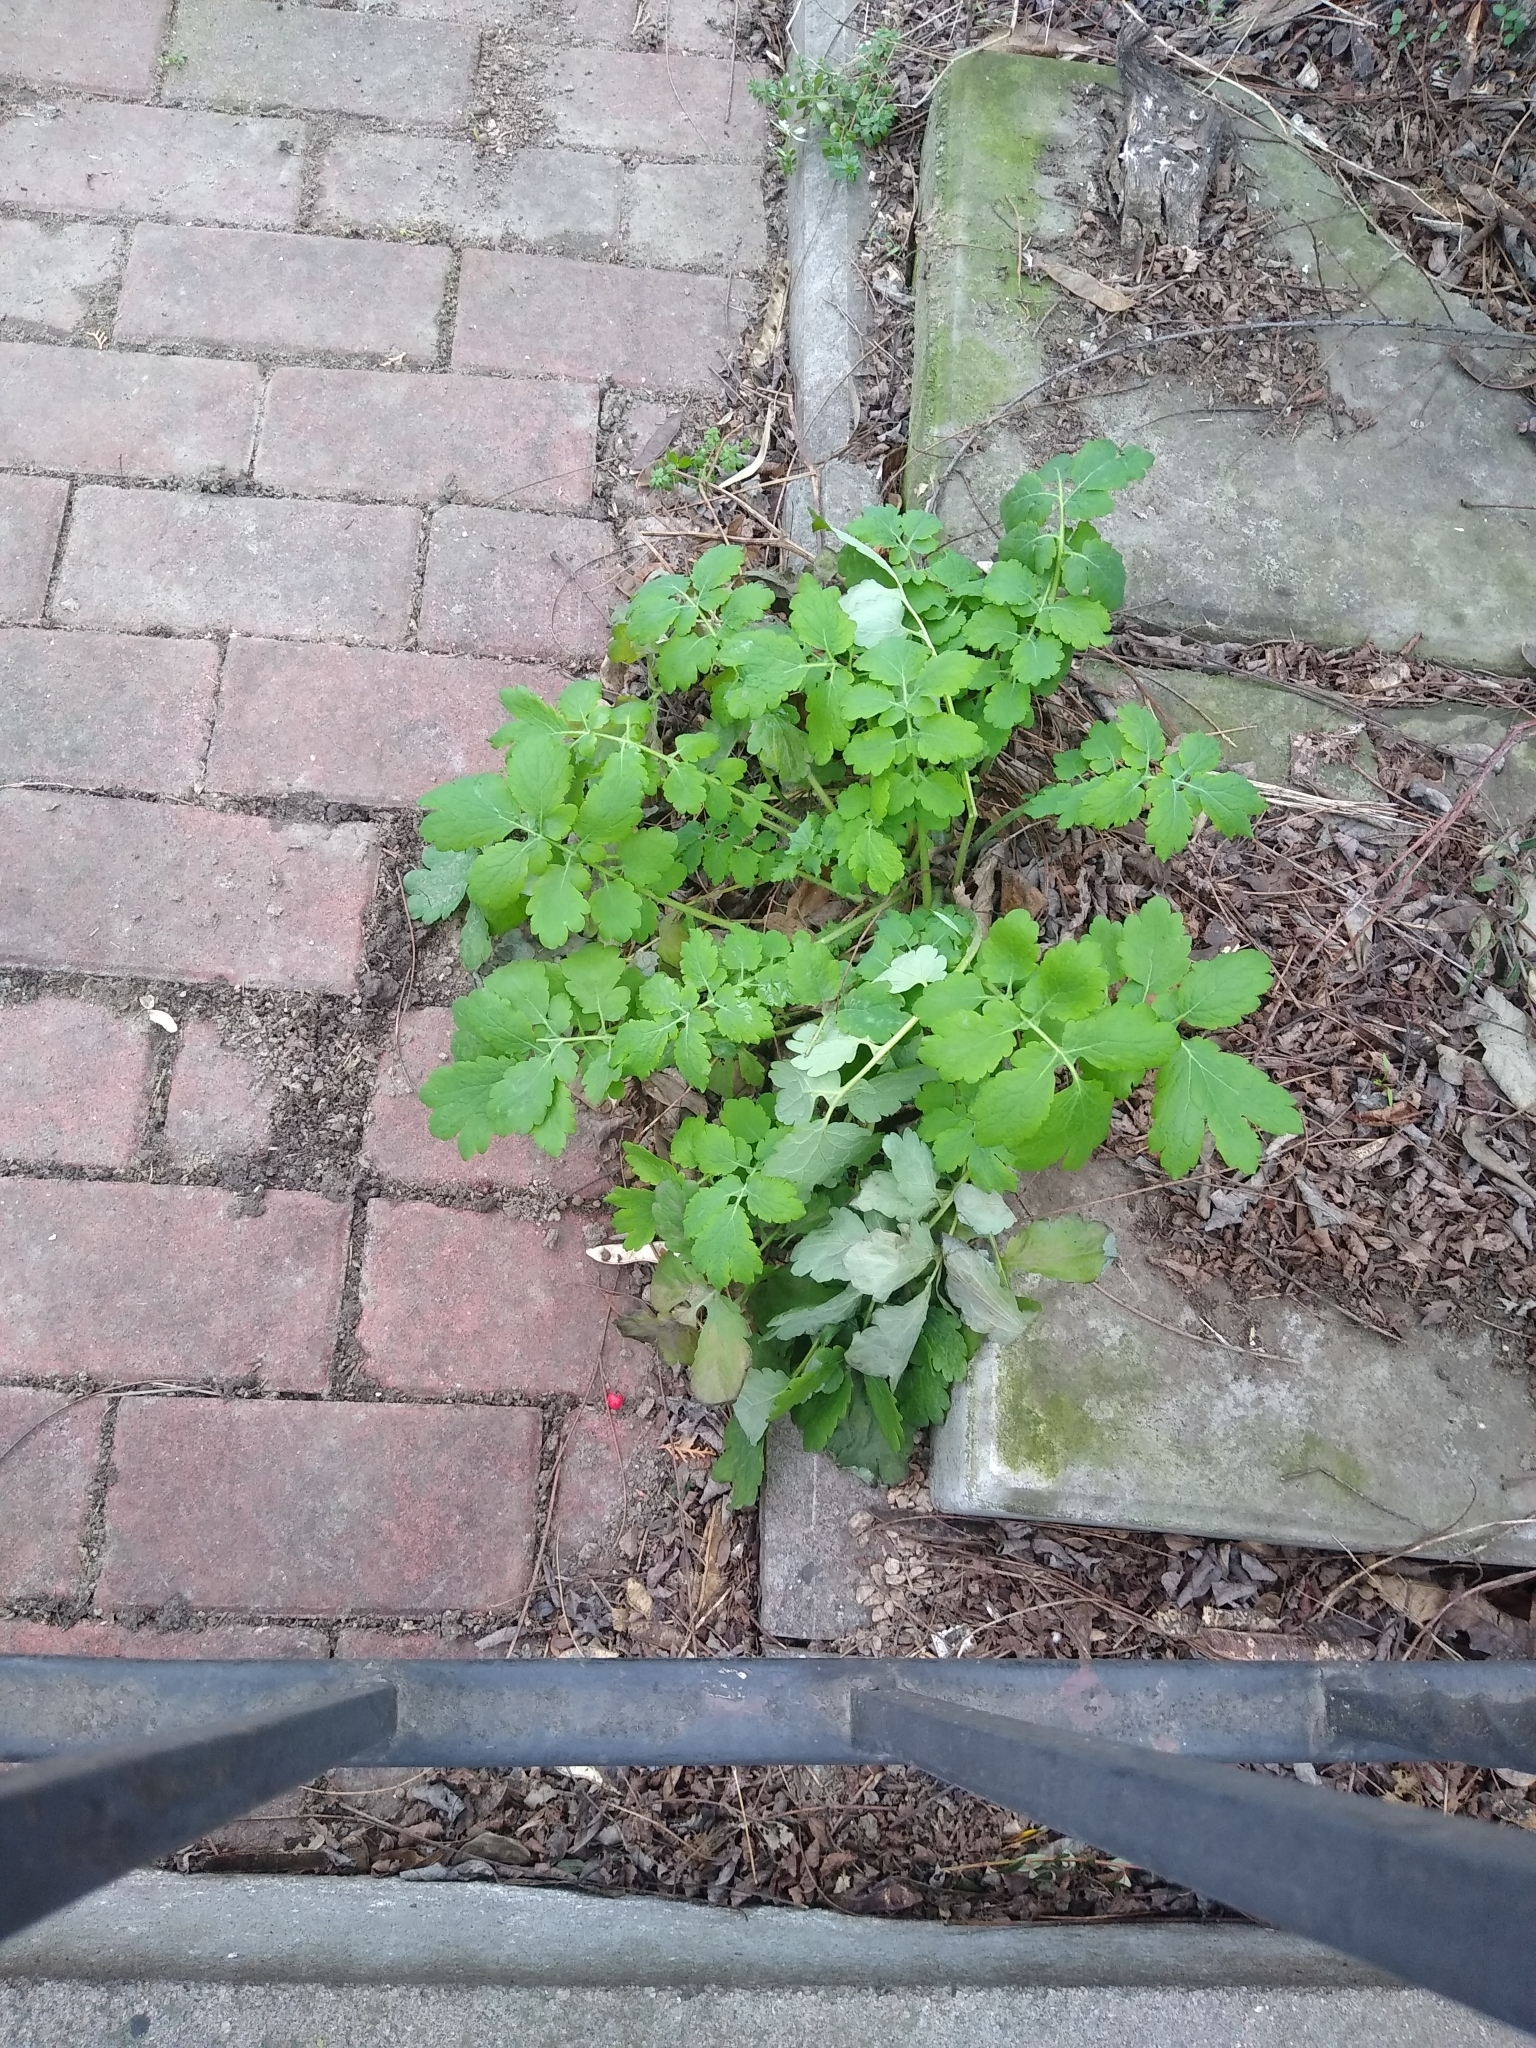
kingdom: Plantae
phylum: Tracheophyta
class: Magnoliopsida
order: Ranunculales
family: Papaveraceae
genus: Chelidonium
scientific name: Chelidonium majus
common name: Greater celandine
